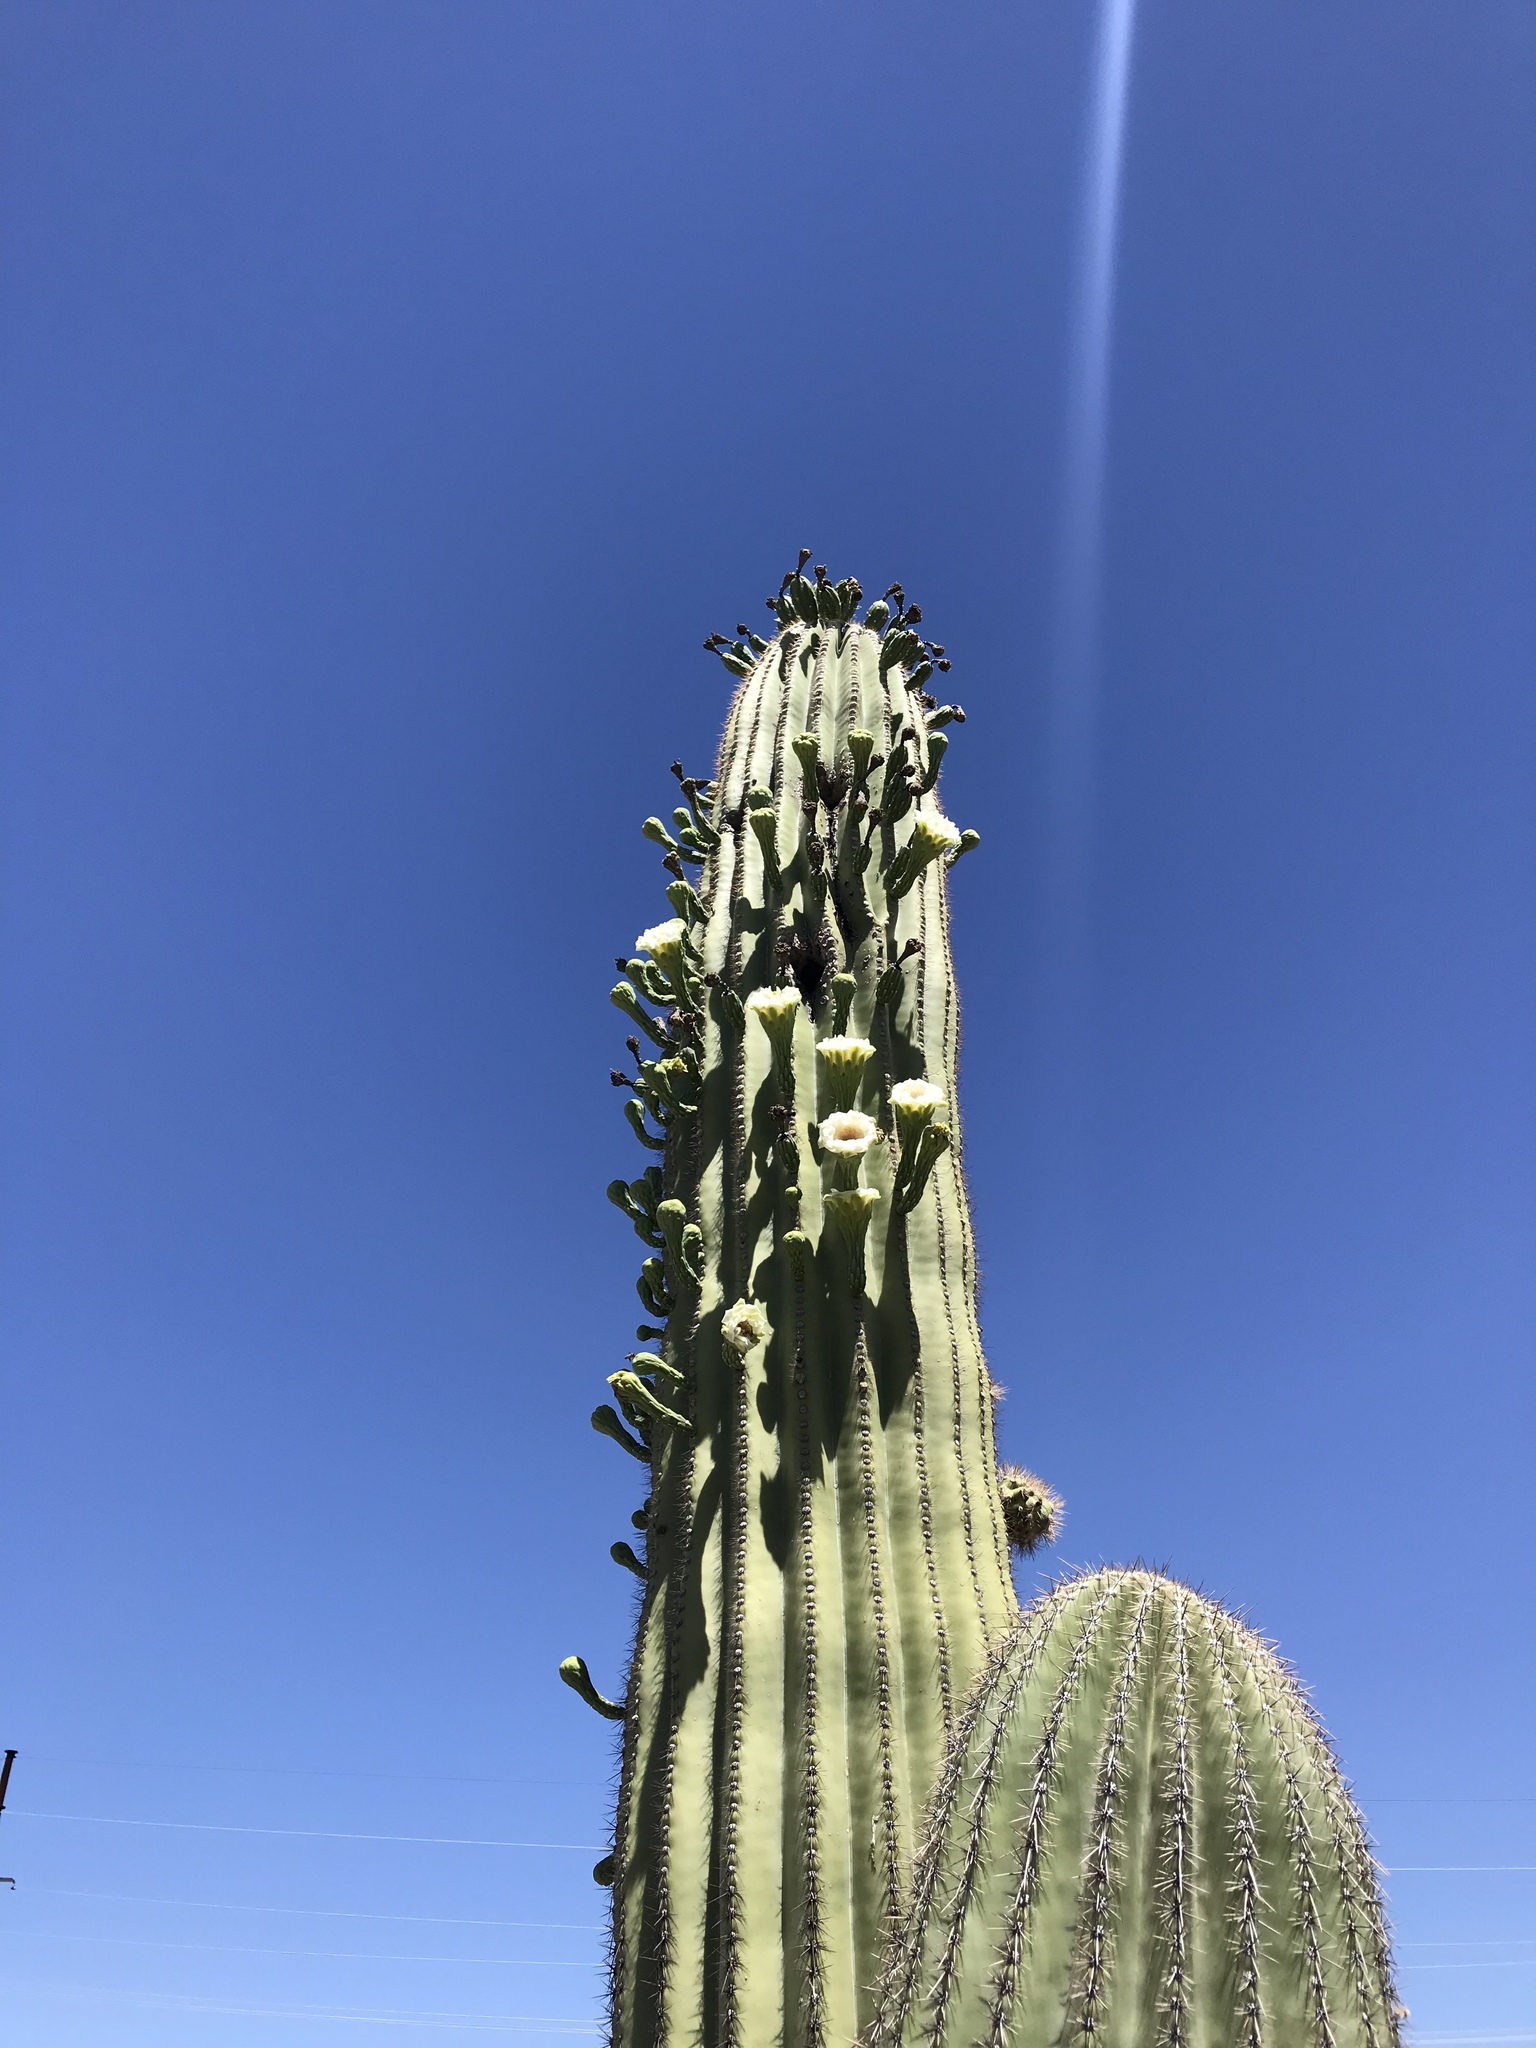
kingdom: Plantae
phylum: Tracheophyta
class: Magnoliopsida
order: Caryophyllales
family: Cactaceae
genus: Carnegiea
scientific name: Carnegiea gigantea
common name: Saguaro
